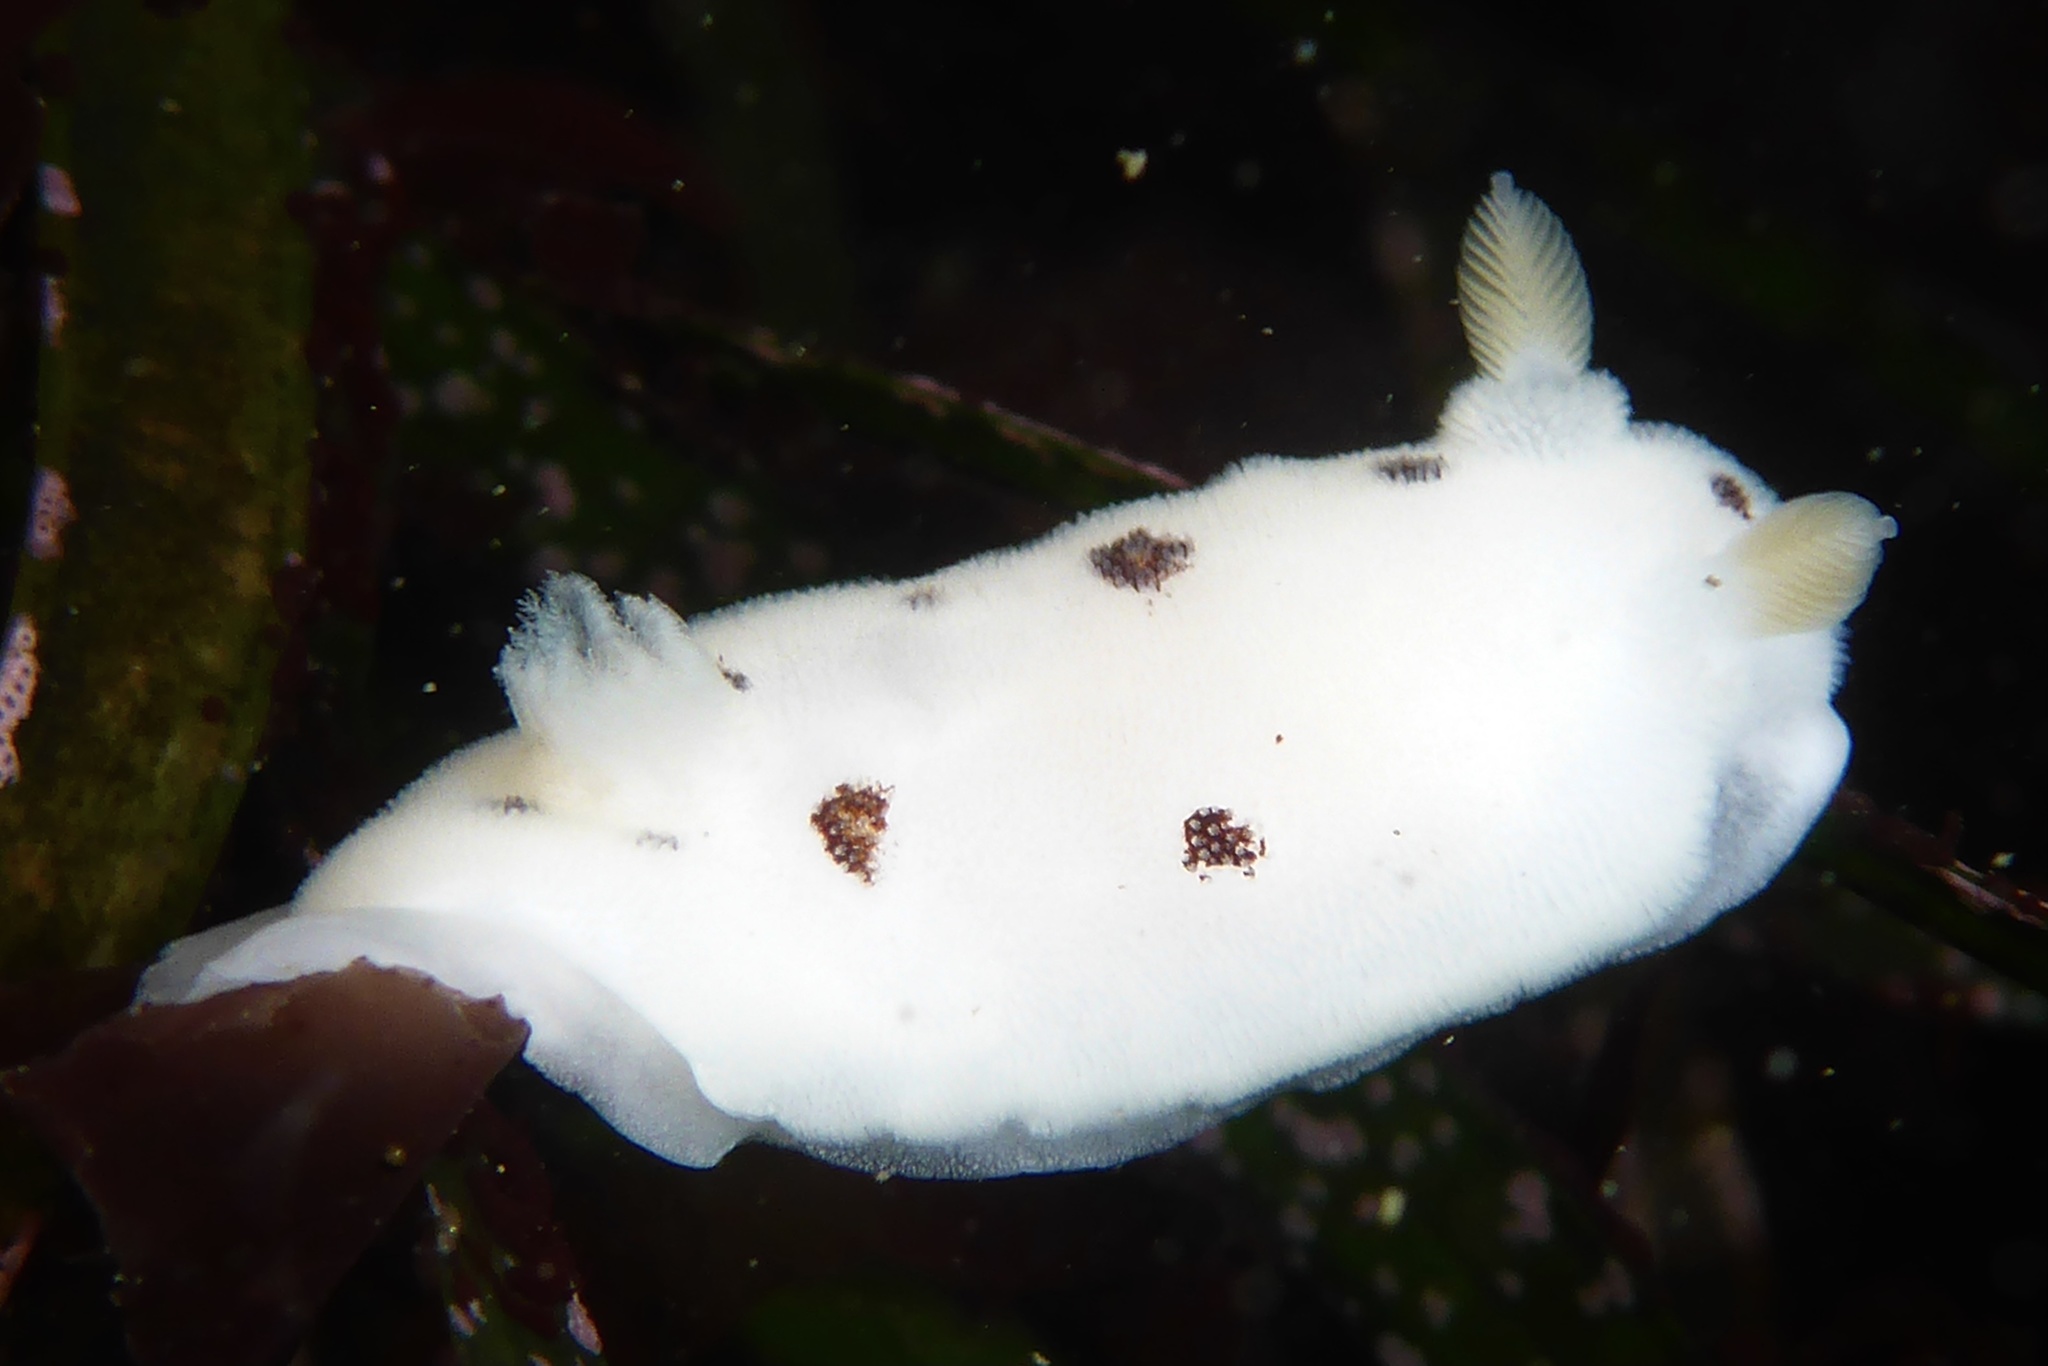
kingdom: Animalia
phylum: Mollusca
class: Gastropoda
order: Nudibranchia
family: Discodorididae
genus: Diaulula
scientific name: Diaulula sandiegensis
